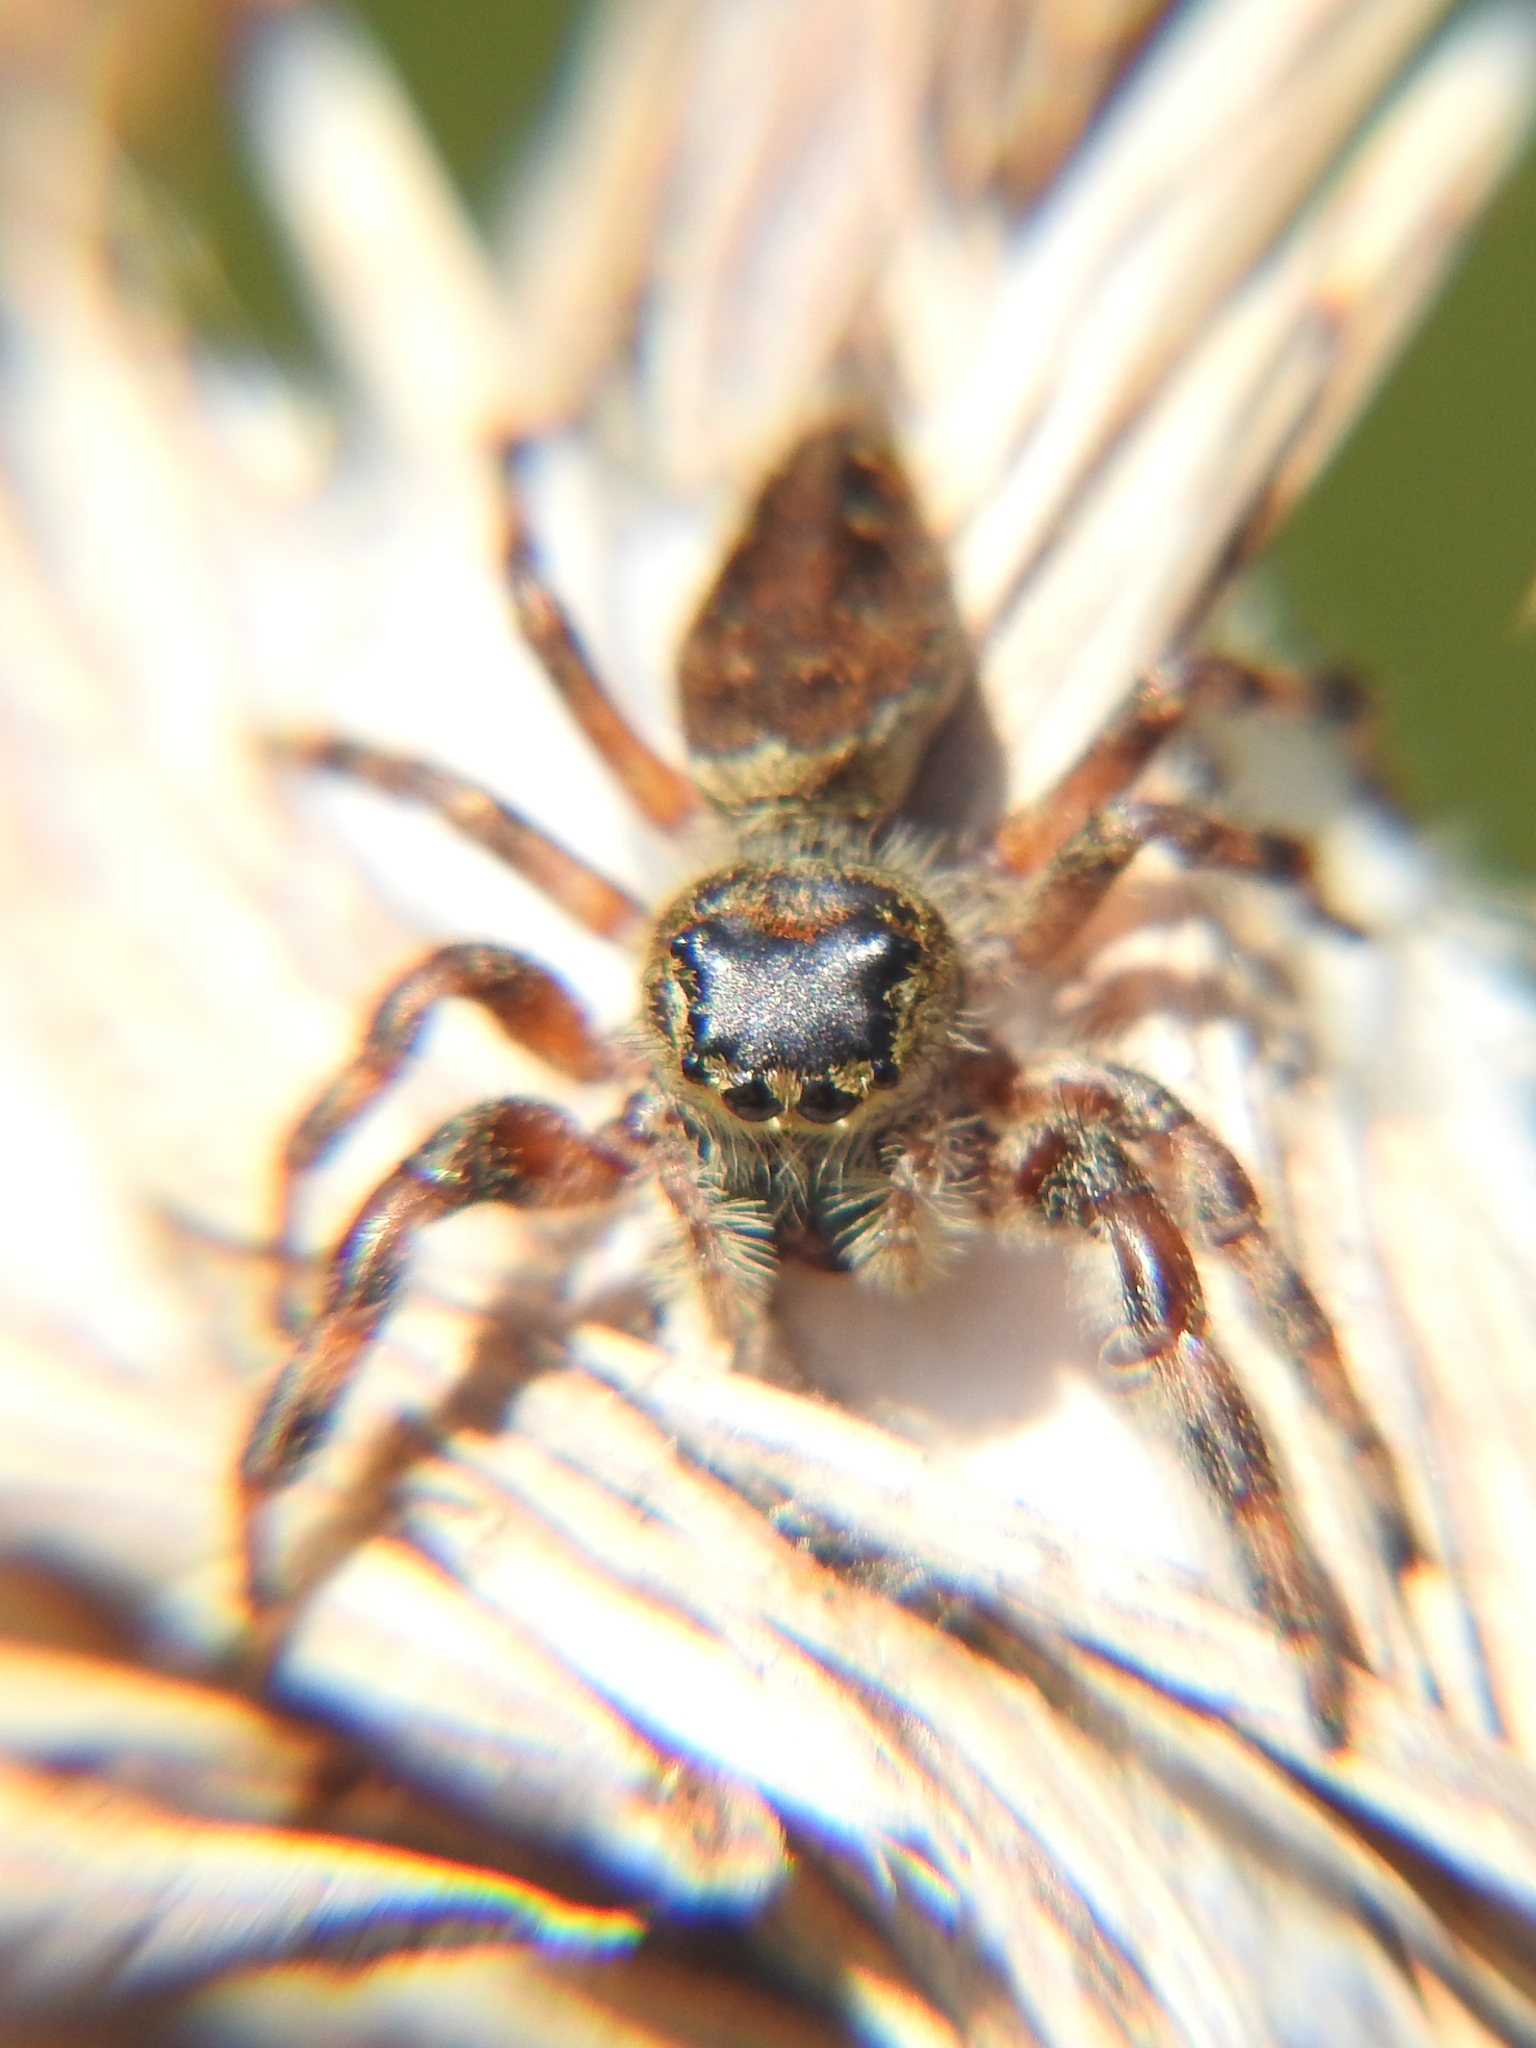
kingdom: Animalia
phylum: Arthropoda
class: Arachnida
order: Araneae
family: Salticidae
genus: Phidippus
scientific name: Phidippus clarus
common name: Brilliant jumping spider
